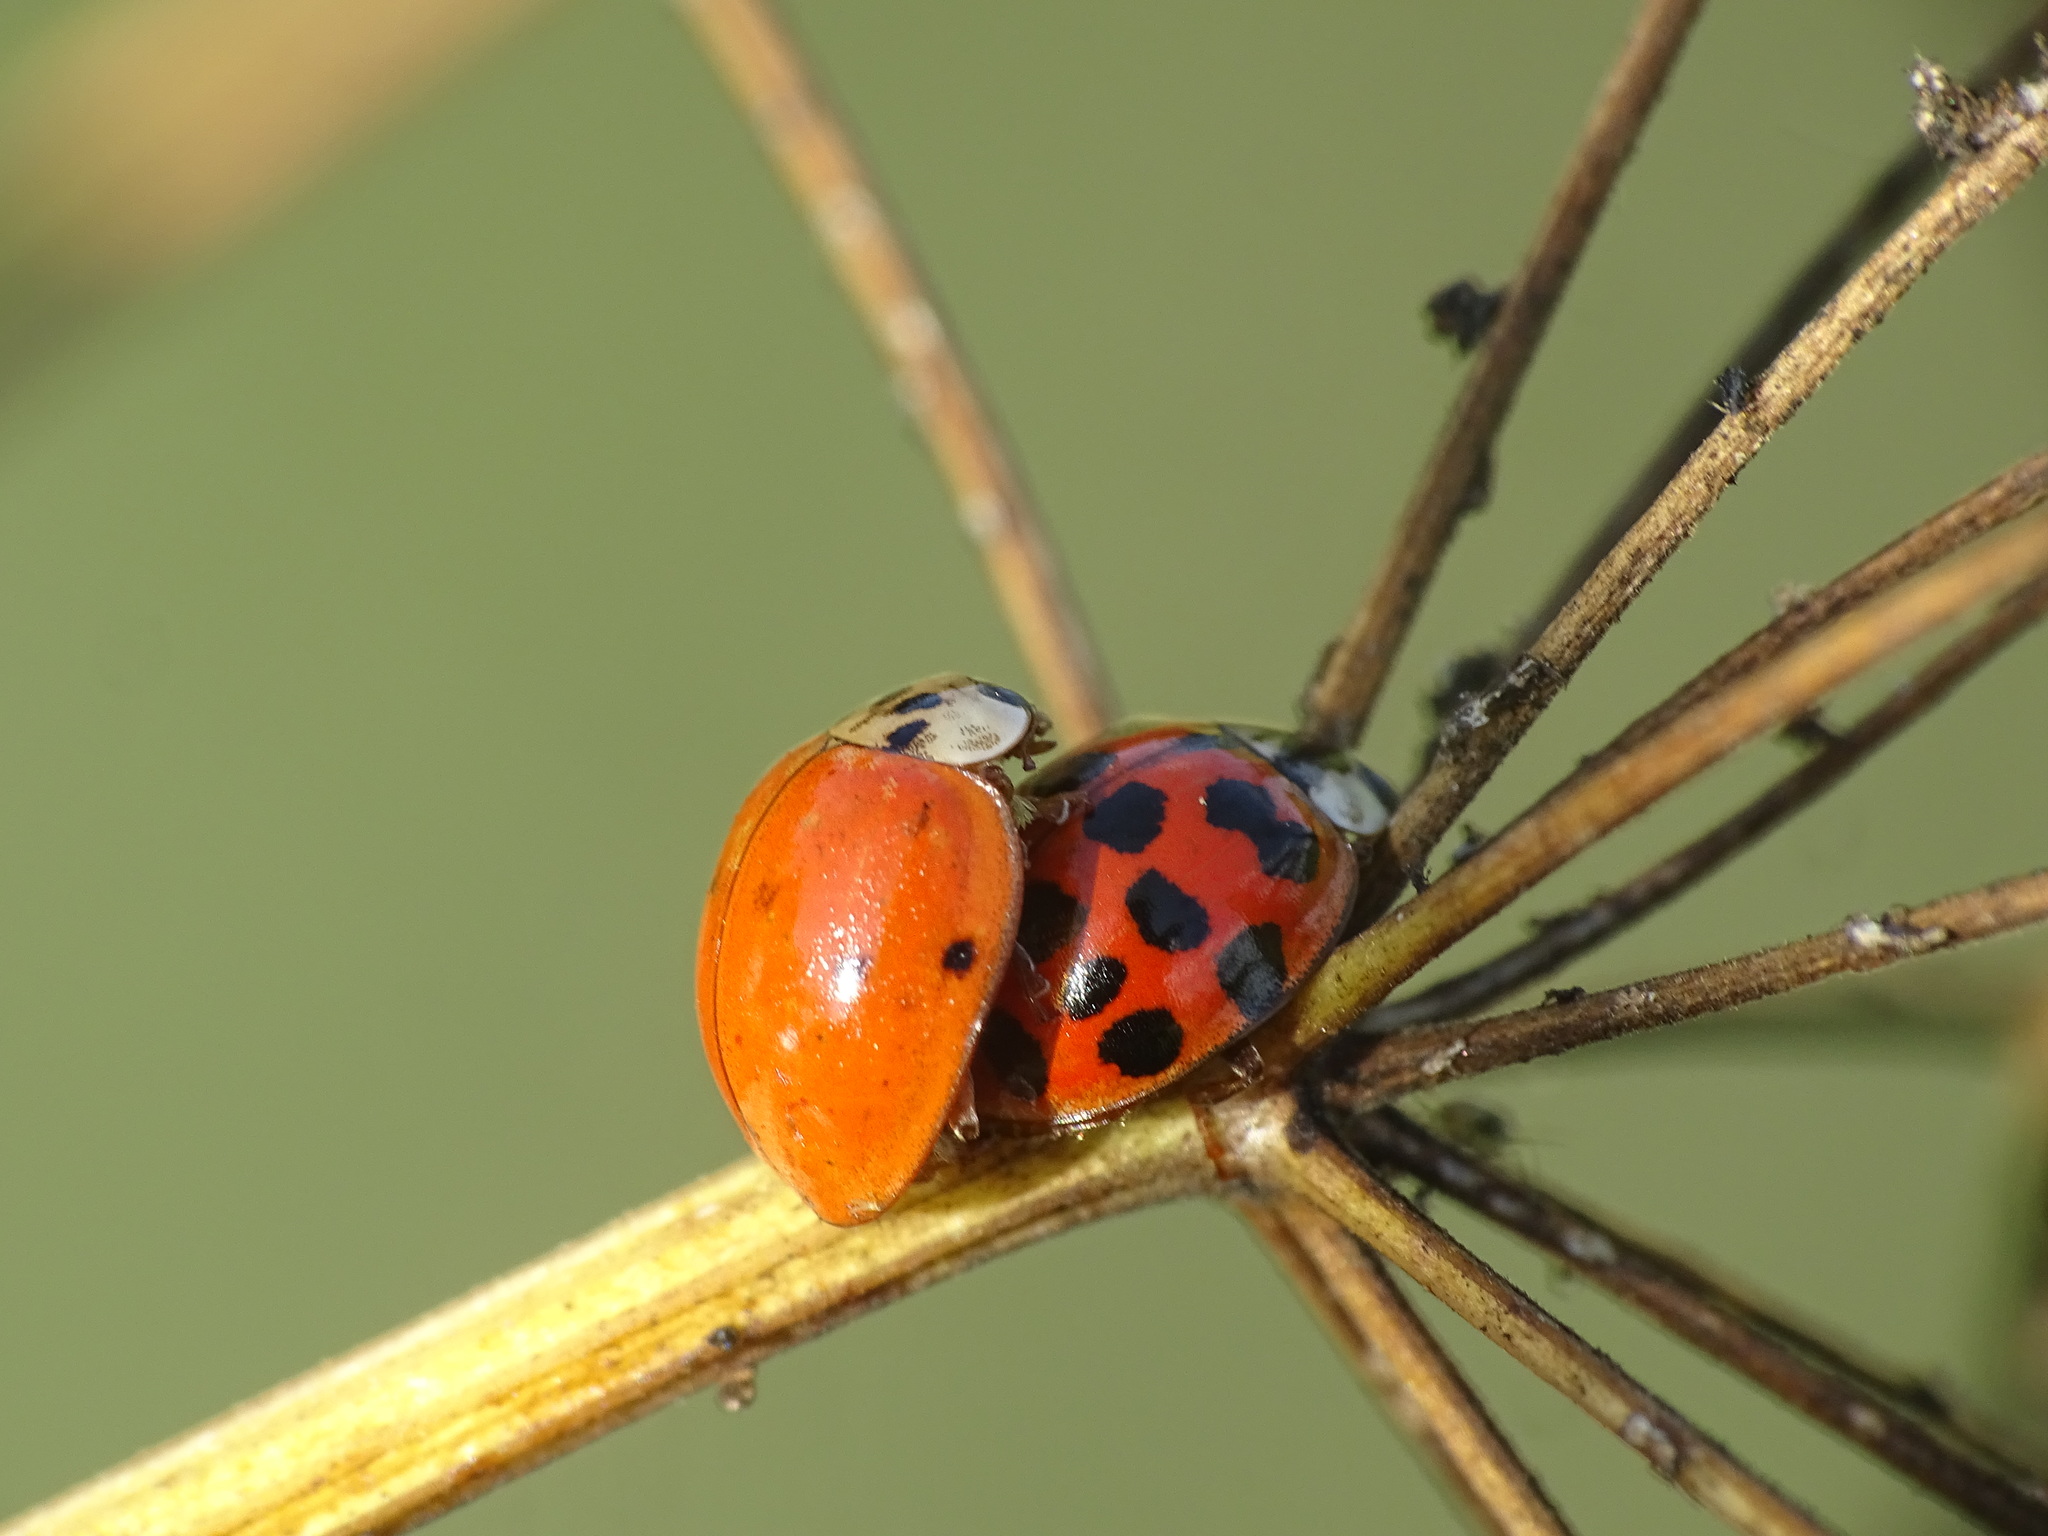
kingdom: Animalia
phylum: Arthropoda
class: Insecta
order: Coleoptera
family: Coccinellidae
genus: Harmonia
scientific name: Harmonia axyridis
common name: Harlequin ladybird
